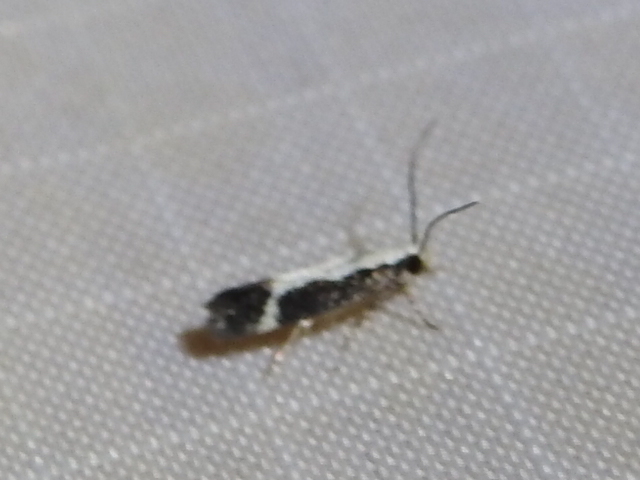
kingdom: Animalia
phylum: Arthropoda
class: Insecta
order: Lepidoptera
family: Gelechiidae
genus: Aroga
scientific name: Aroga camptogramma
